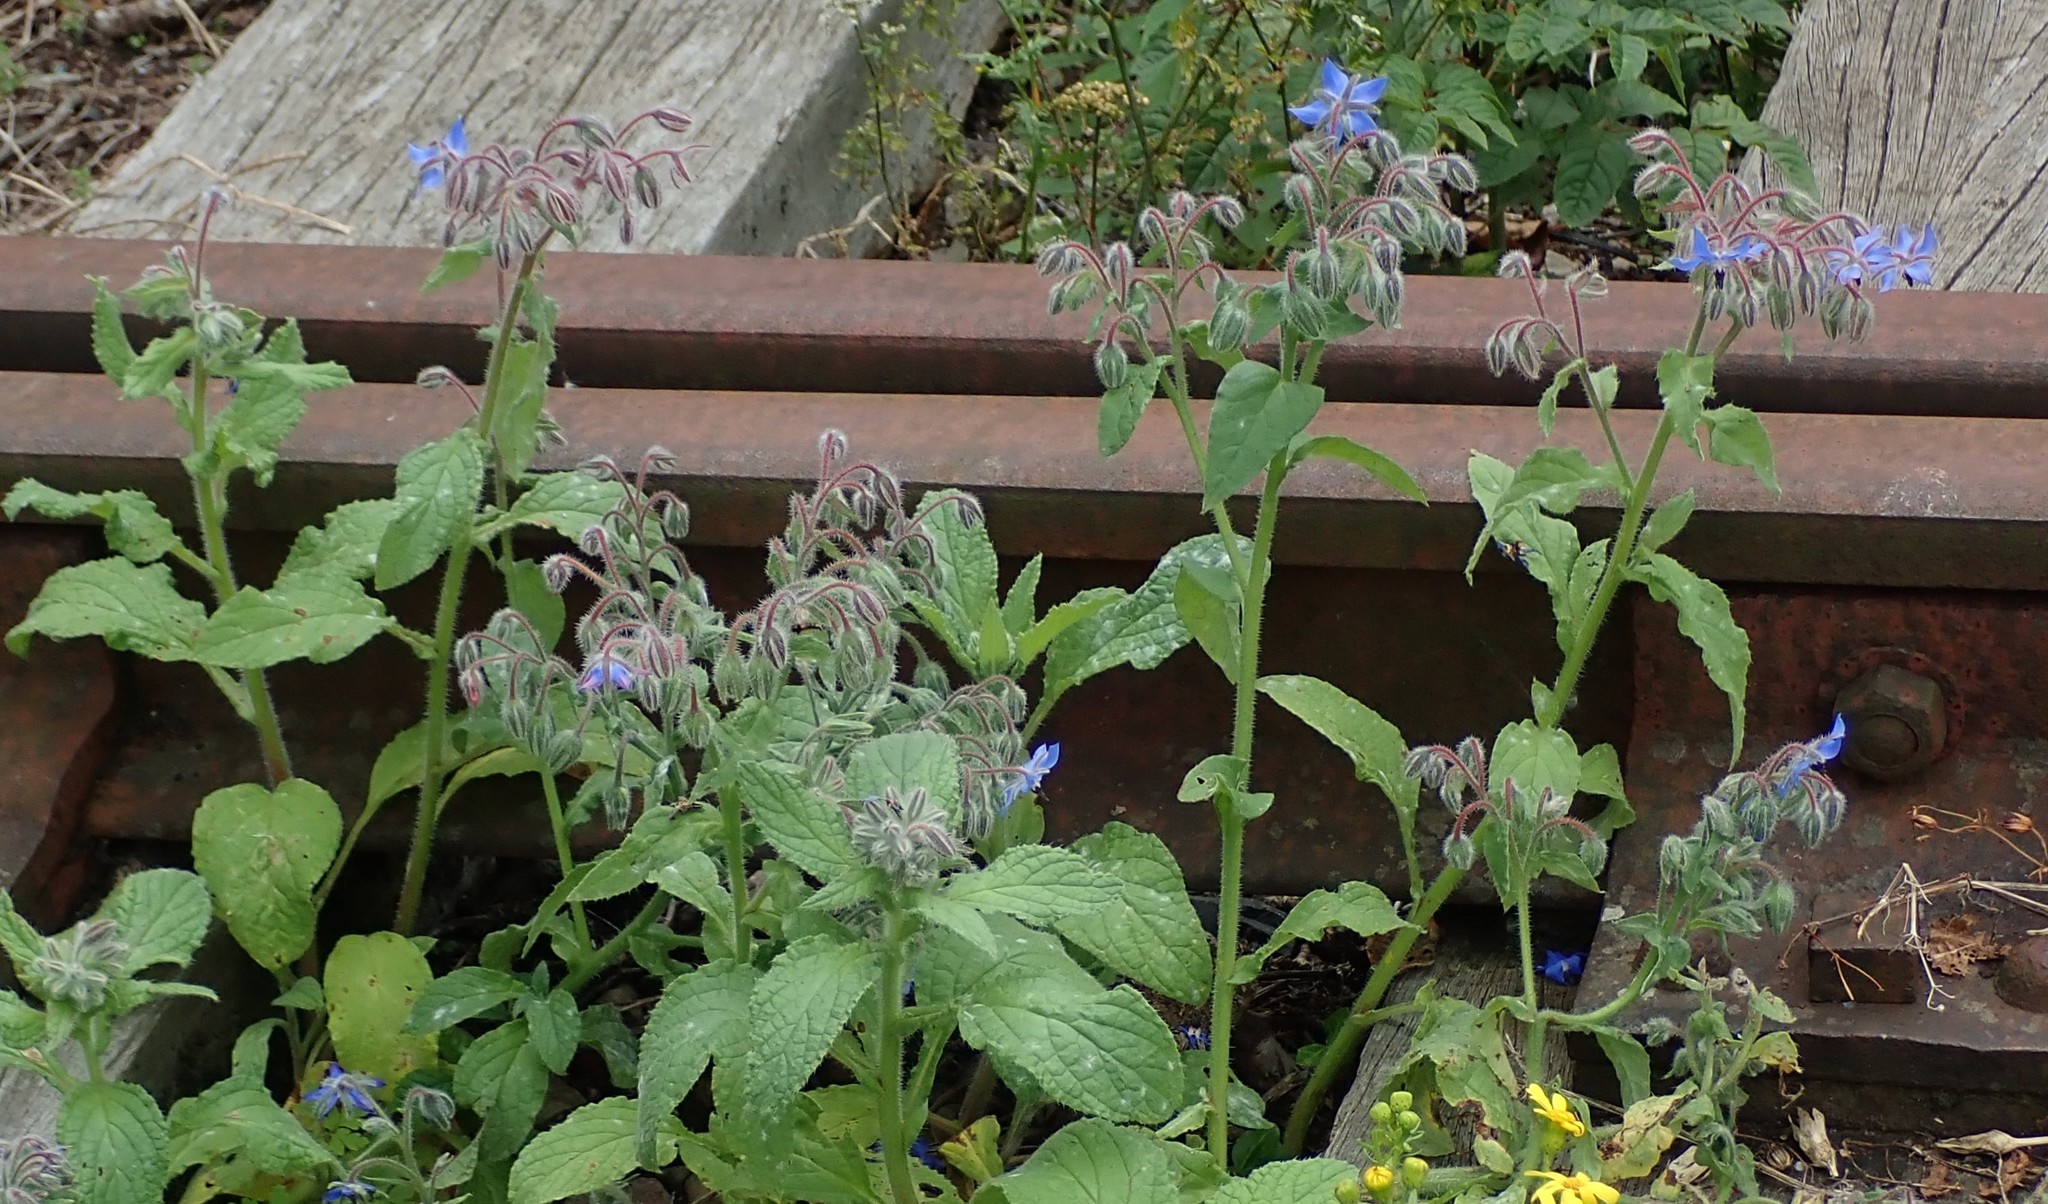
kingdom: Plantae
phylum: Tracheophyta
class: Magnoliopsida
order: Boraginales
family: Boraginaceae
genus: Borago
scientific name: Borago officinalis
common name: Borage
